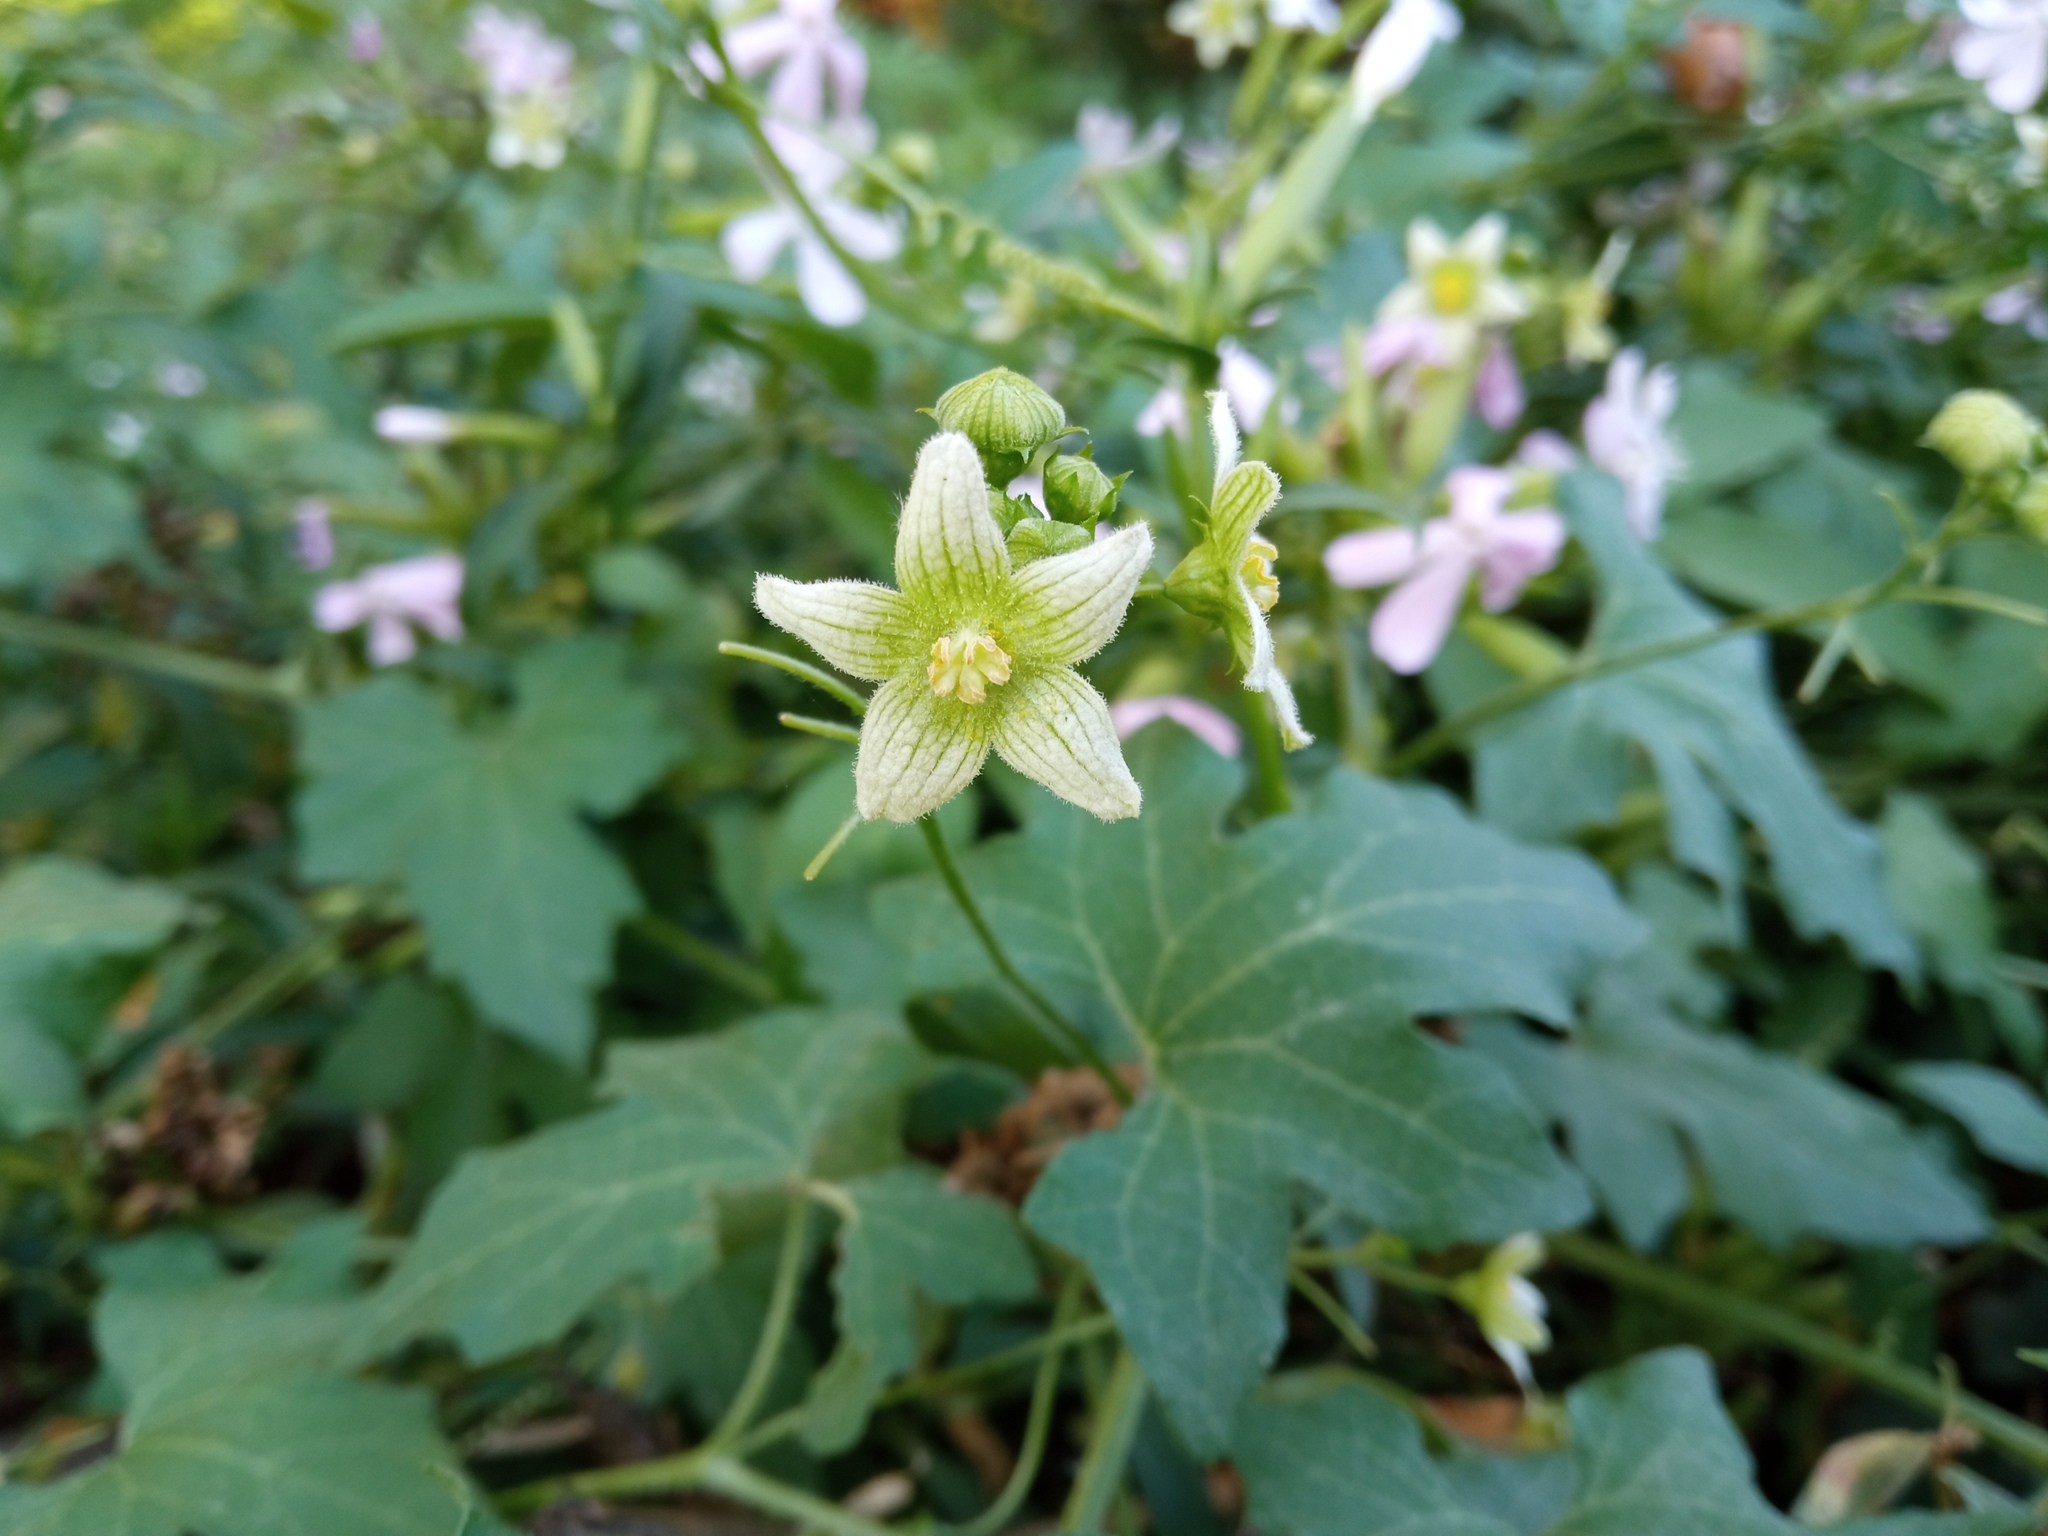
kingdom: Plantae
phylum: Tracheophyta
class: Magnoliopsida
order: Cucurbitales
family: Cucurbitaceae
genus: Bryonia
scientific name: Bryonia dioica
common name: White bryony
